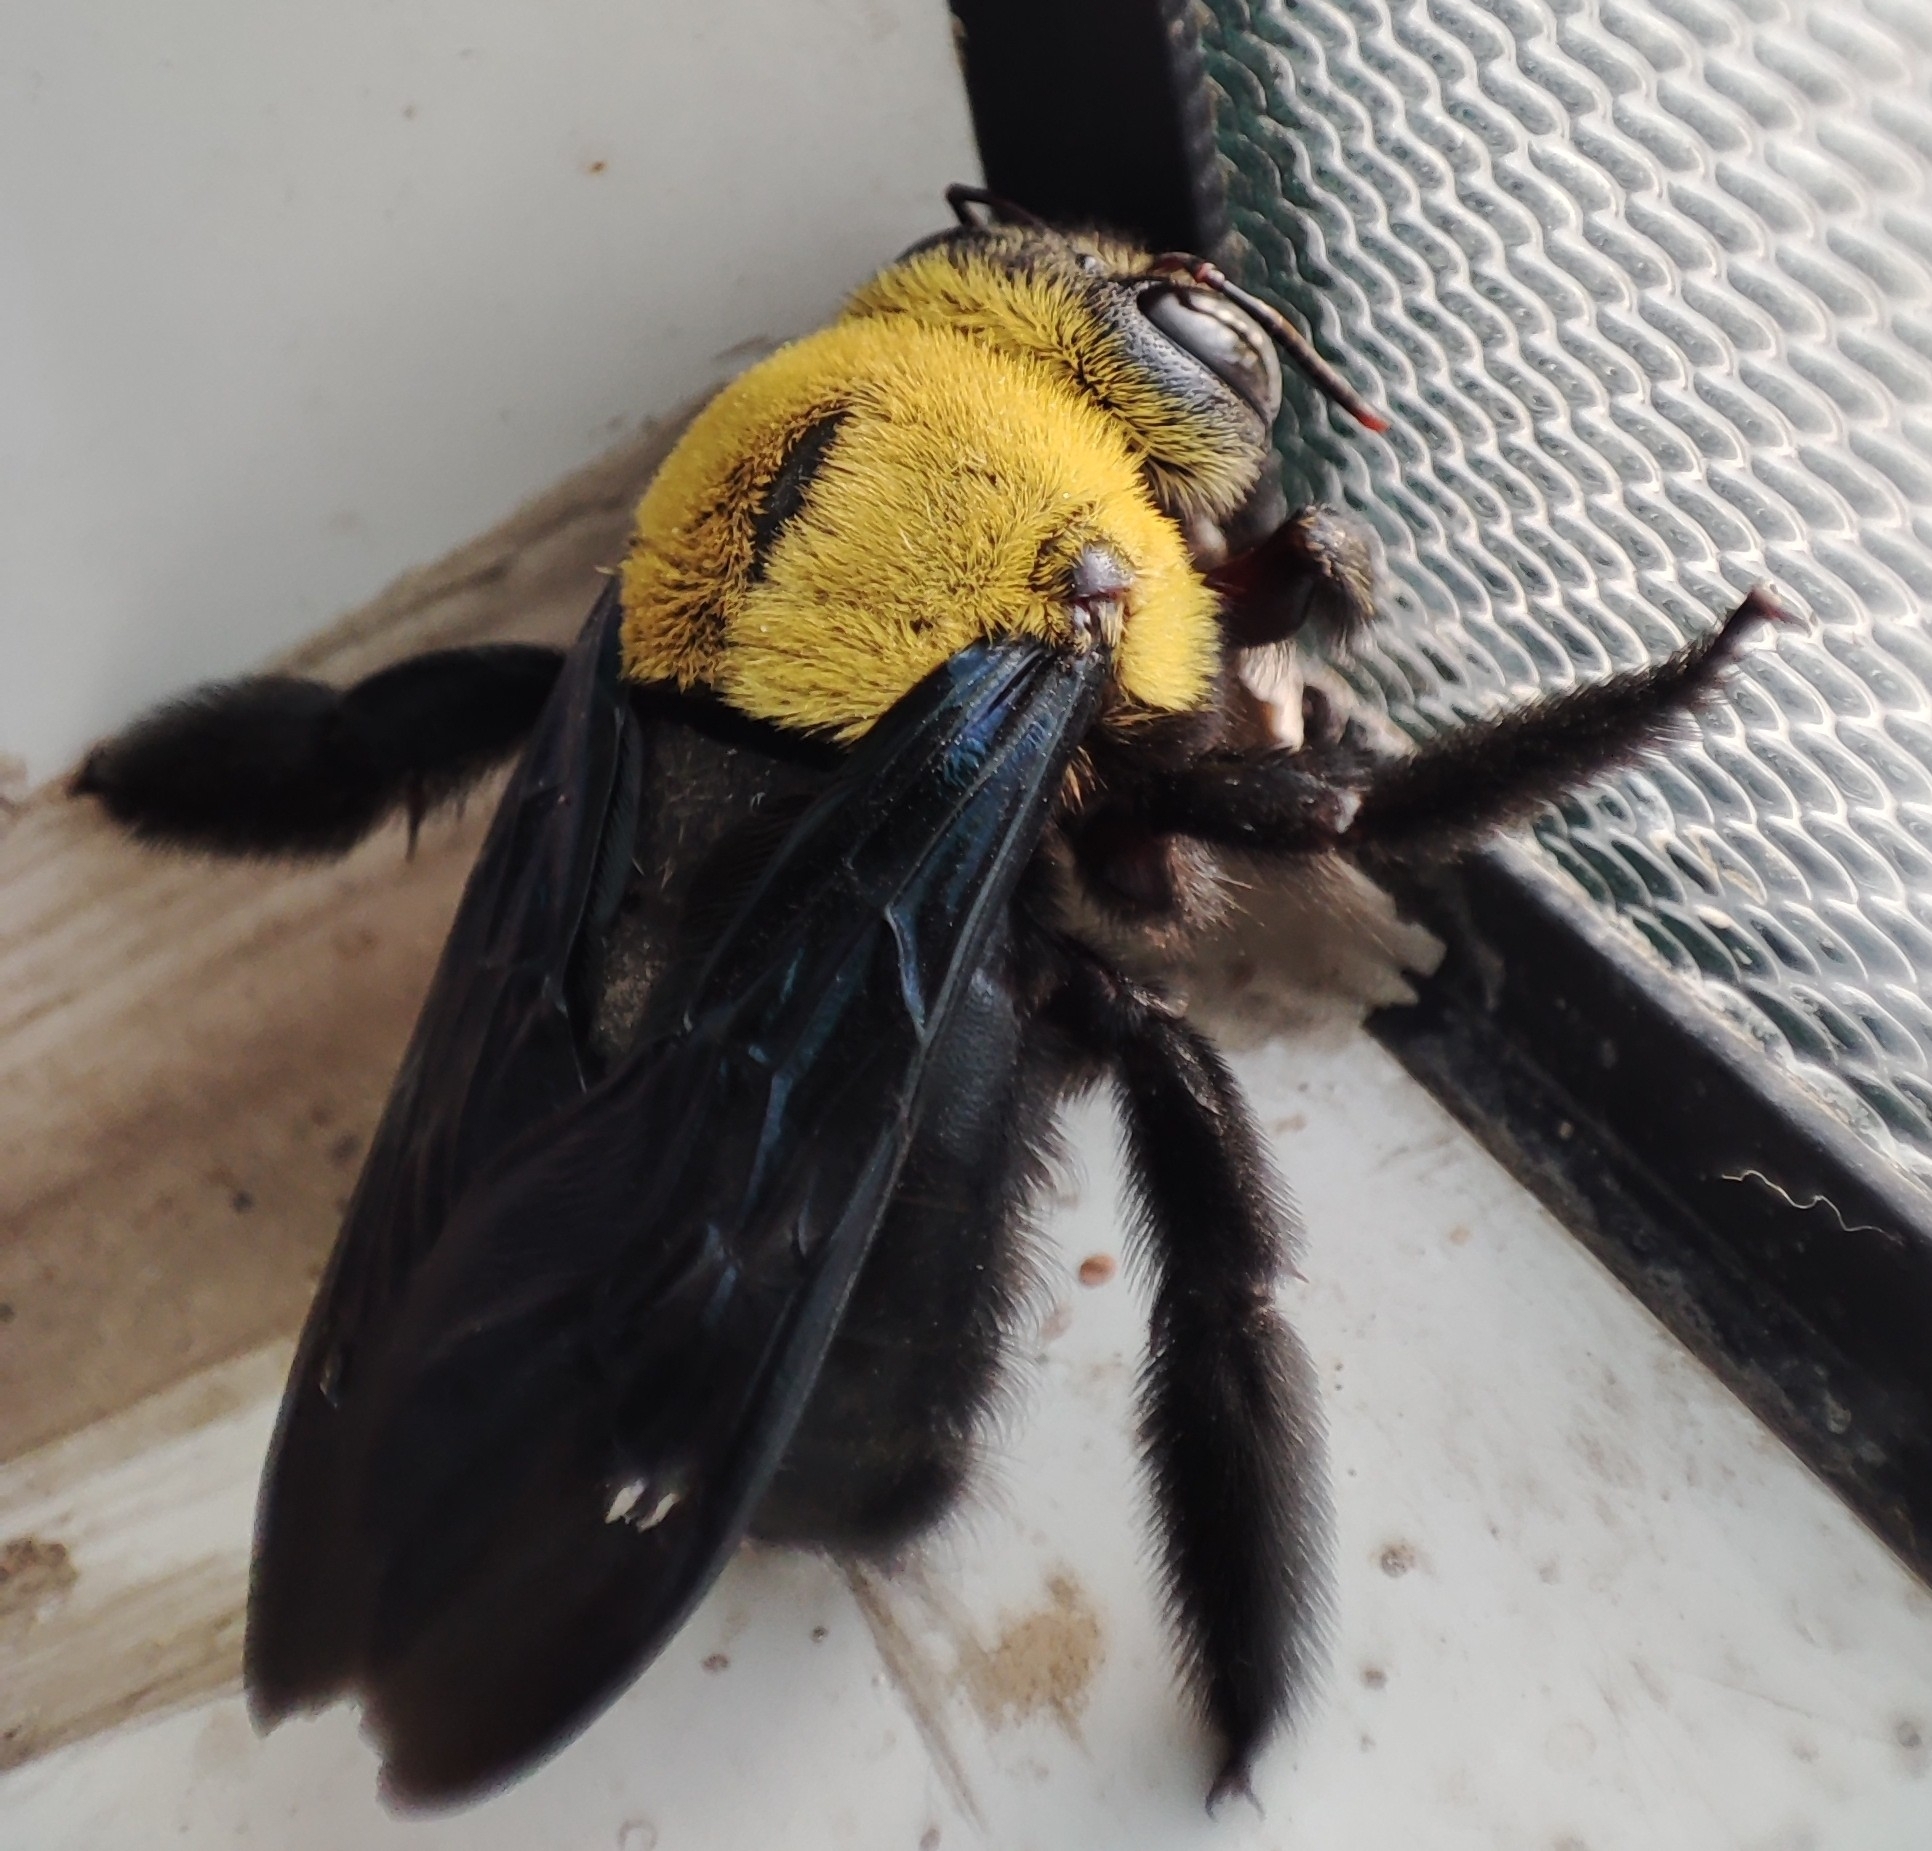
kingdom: Animalia
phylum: Arthropoda
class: Insecta
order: Hymenoptera
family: Apidae
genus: Xylocopa
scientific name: Xylocopa ruficornis
